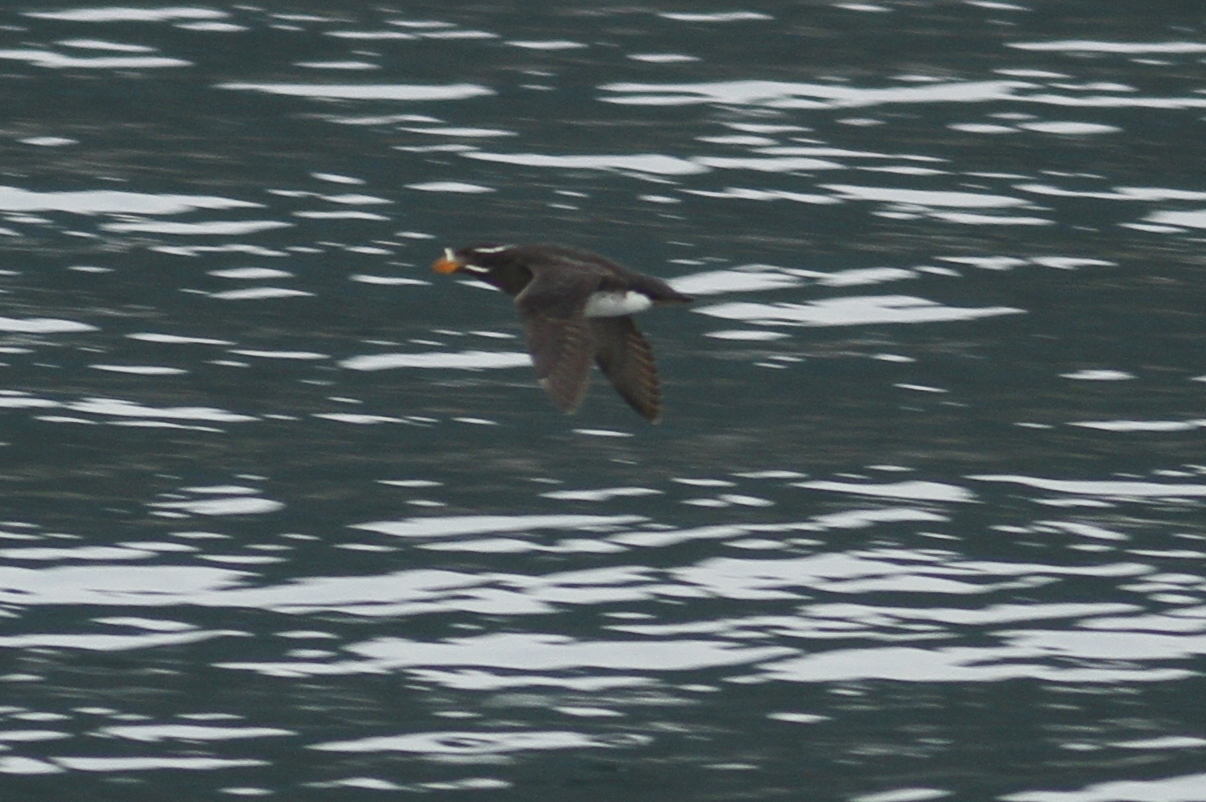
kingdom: Animalia
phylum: Chordata
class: Aves
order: Charadriiformes
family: Alcidae
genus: Cerorhinca
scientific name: Cerorhinca monocerata
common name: Rhinoceros auklet
